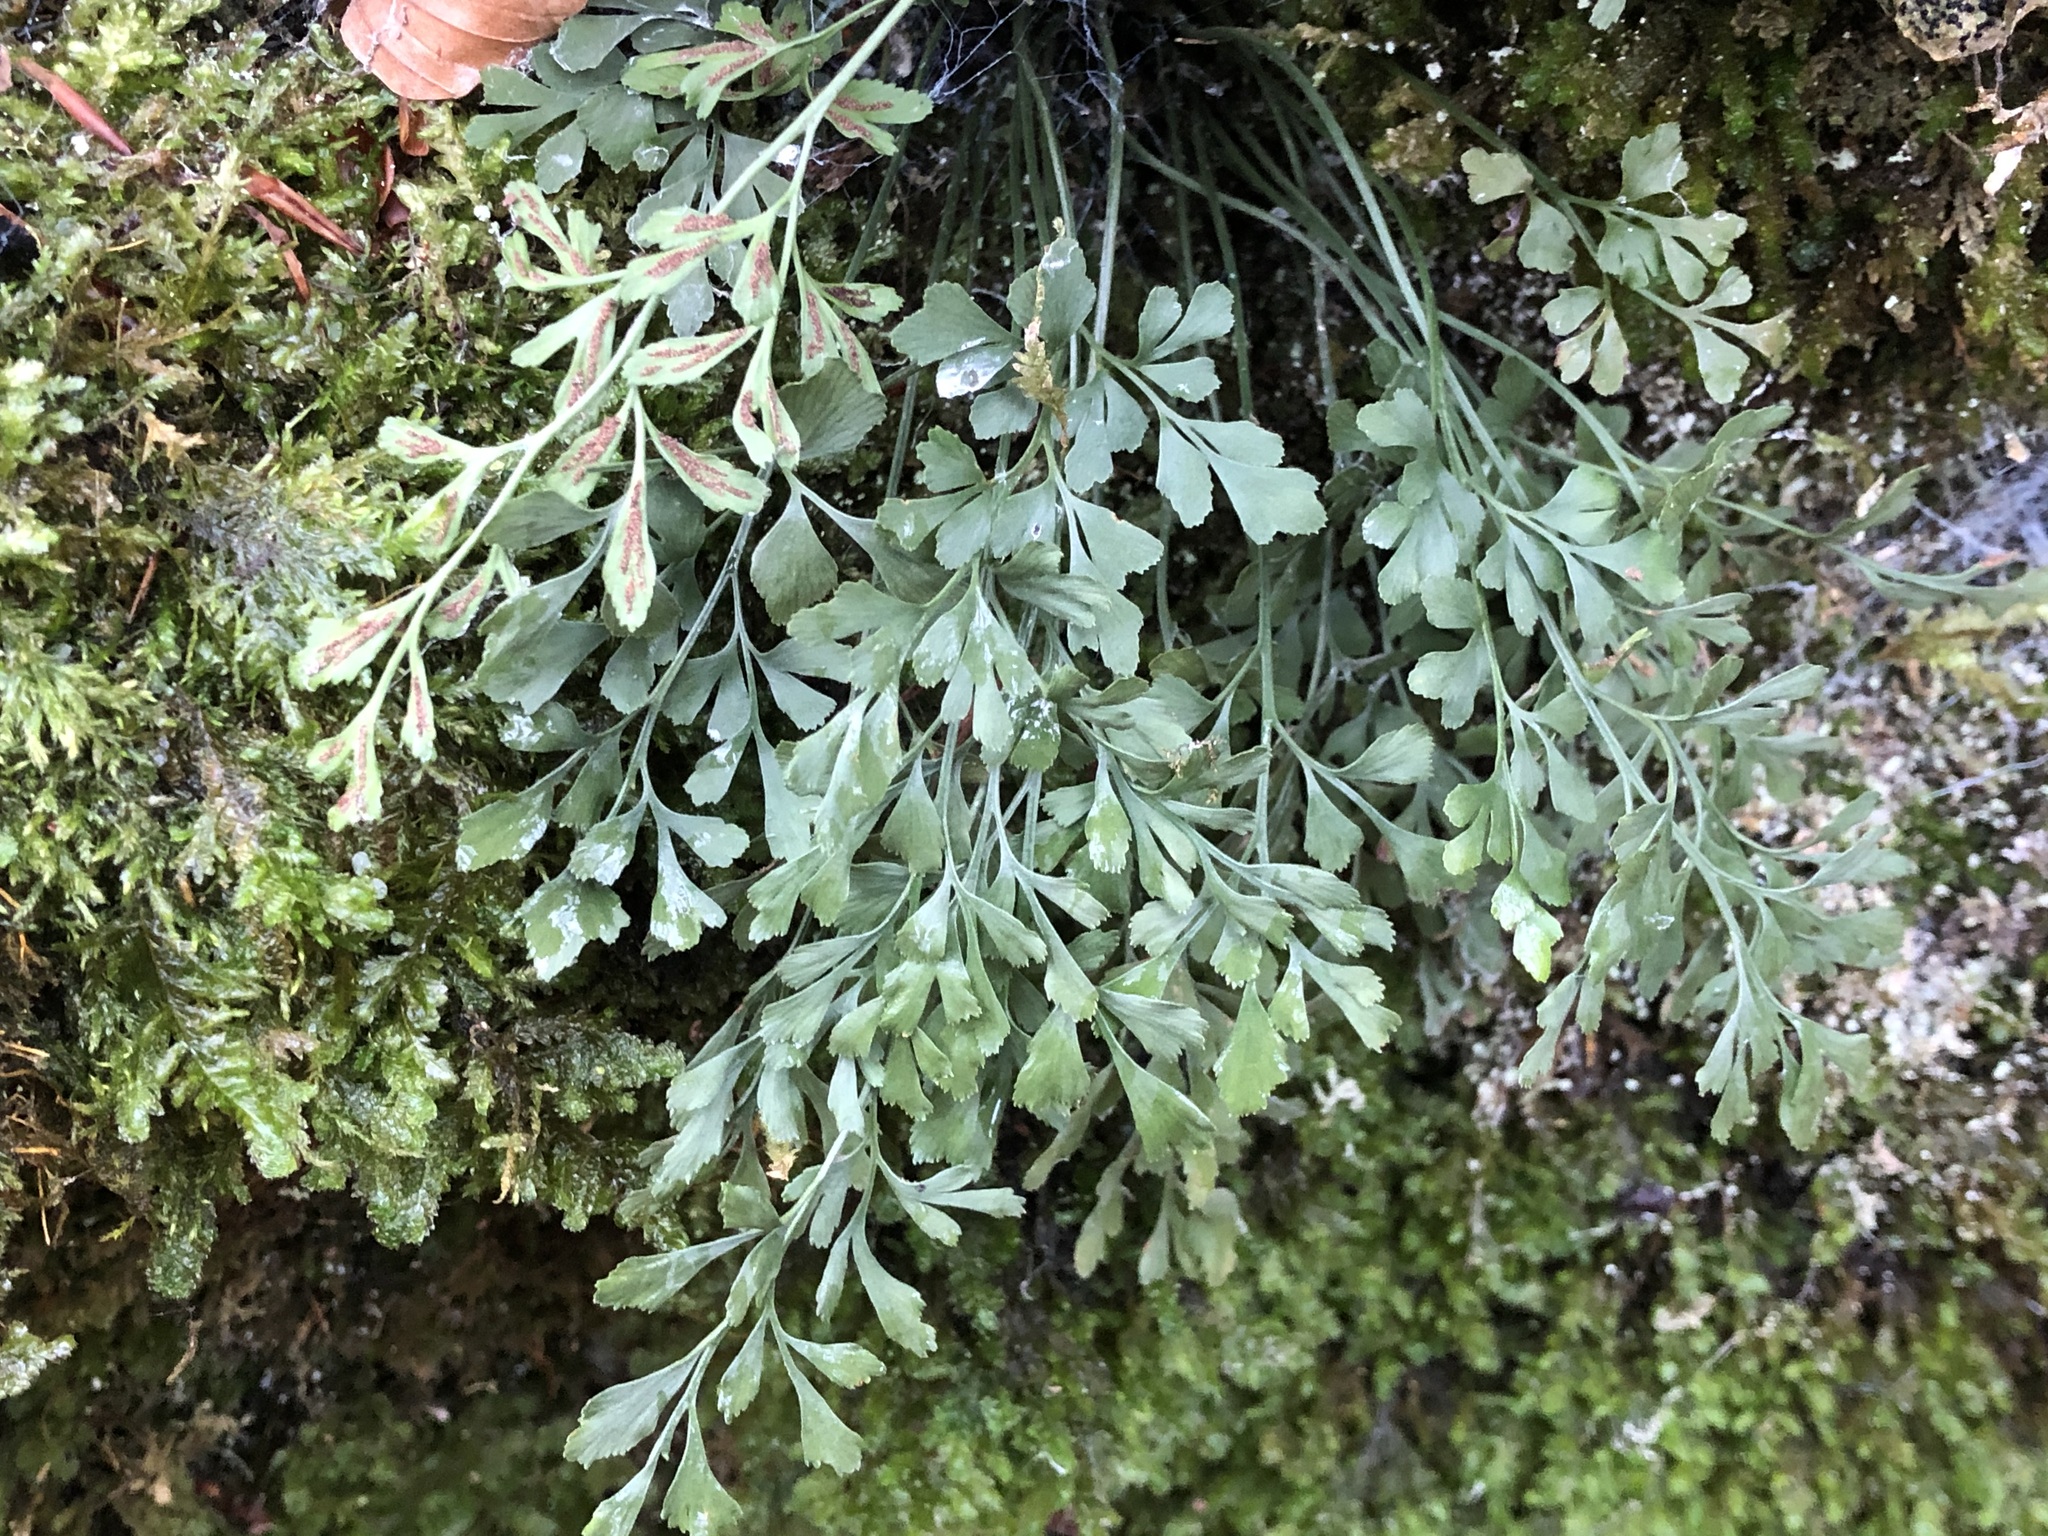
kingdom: Plantae
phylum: Tracheophyta
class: Polypodiopsida
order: Polypodiales
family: Aspleniaceae
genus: Asplenium
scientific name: Asplenium ruta-muraria
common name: Wall-rue
